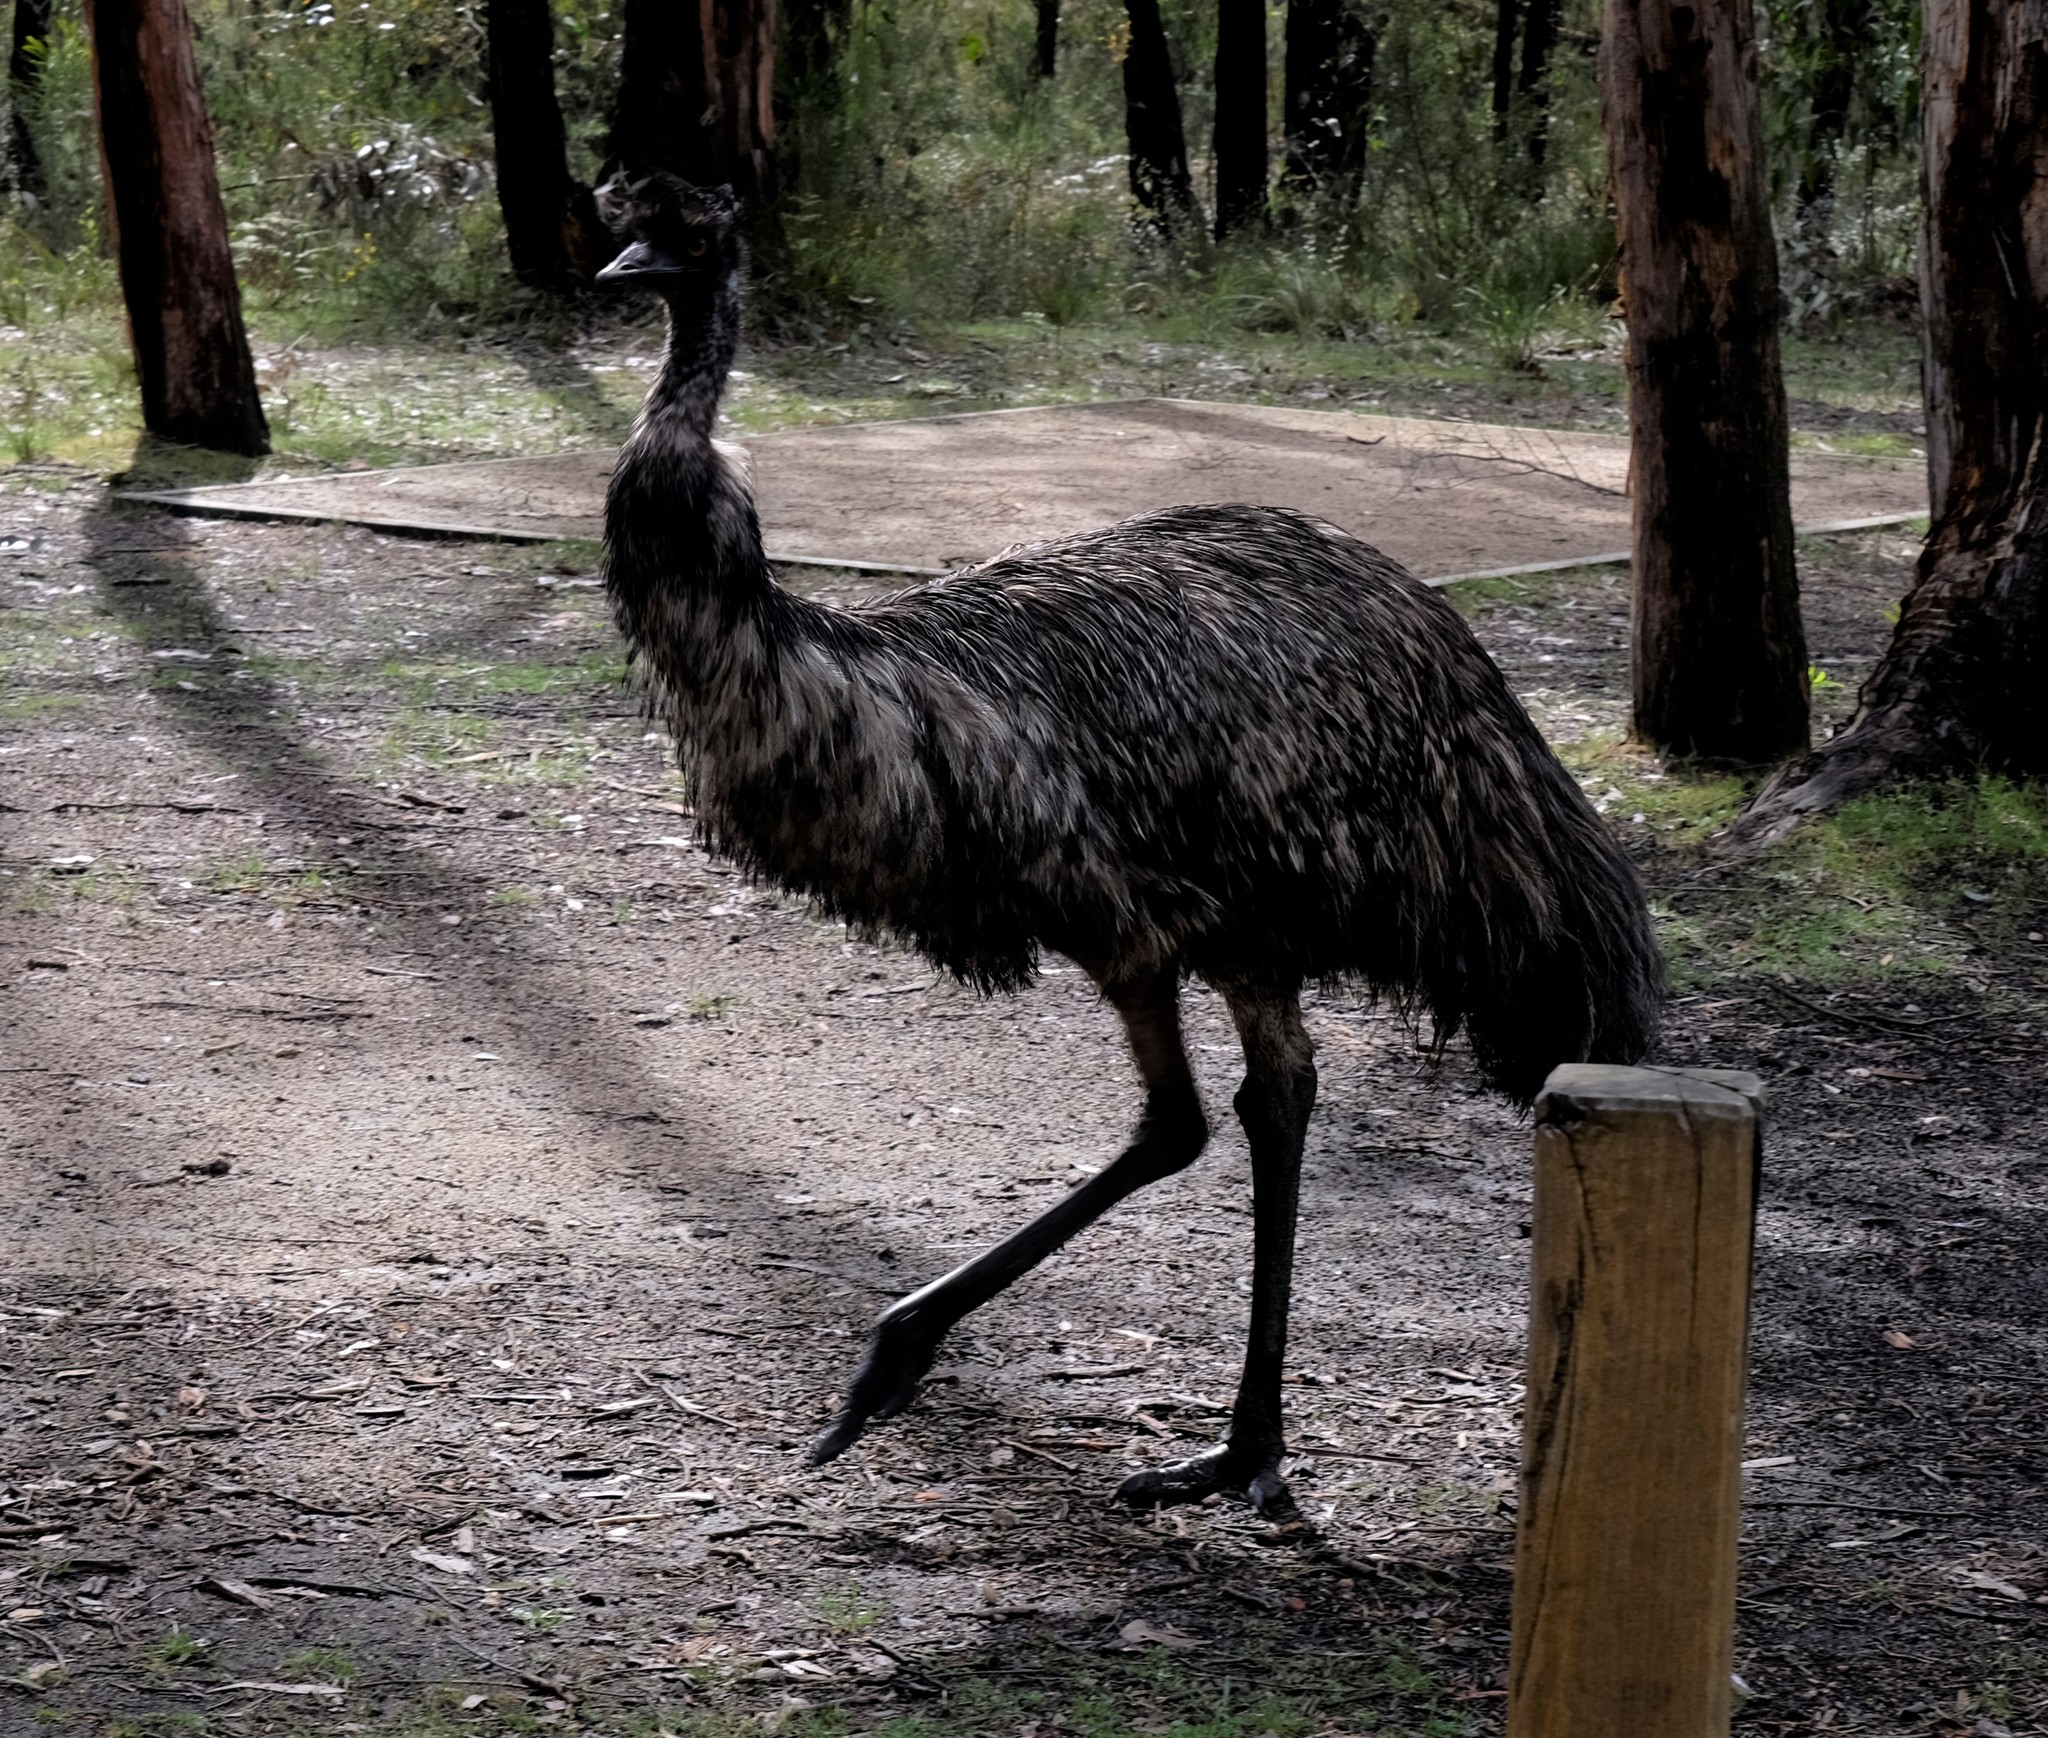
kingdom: Animalia
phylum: Chordata
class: Aves
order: Casuariiformes
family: Dromaiidae
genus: Dromaius
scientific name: Dromaius novaehollandiae
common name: Emu
